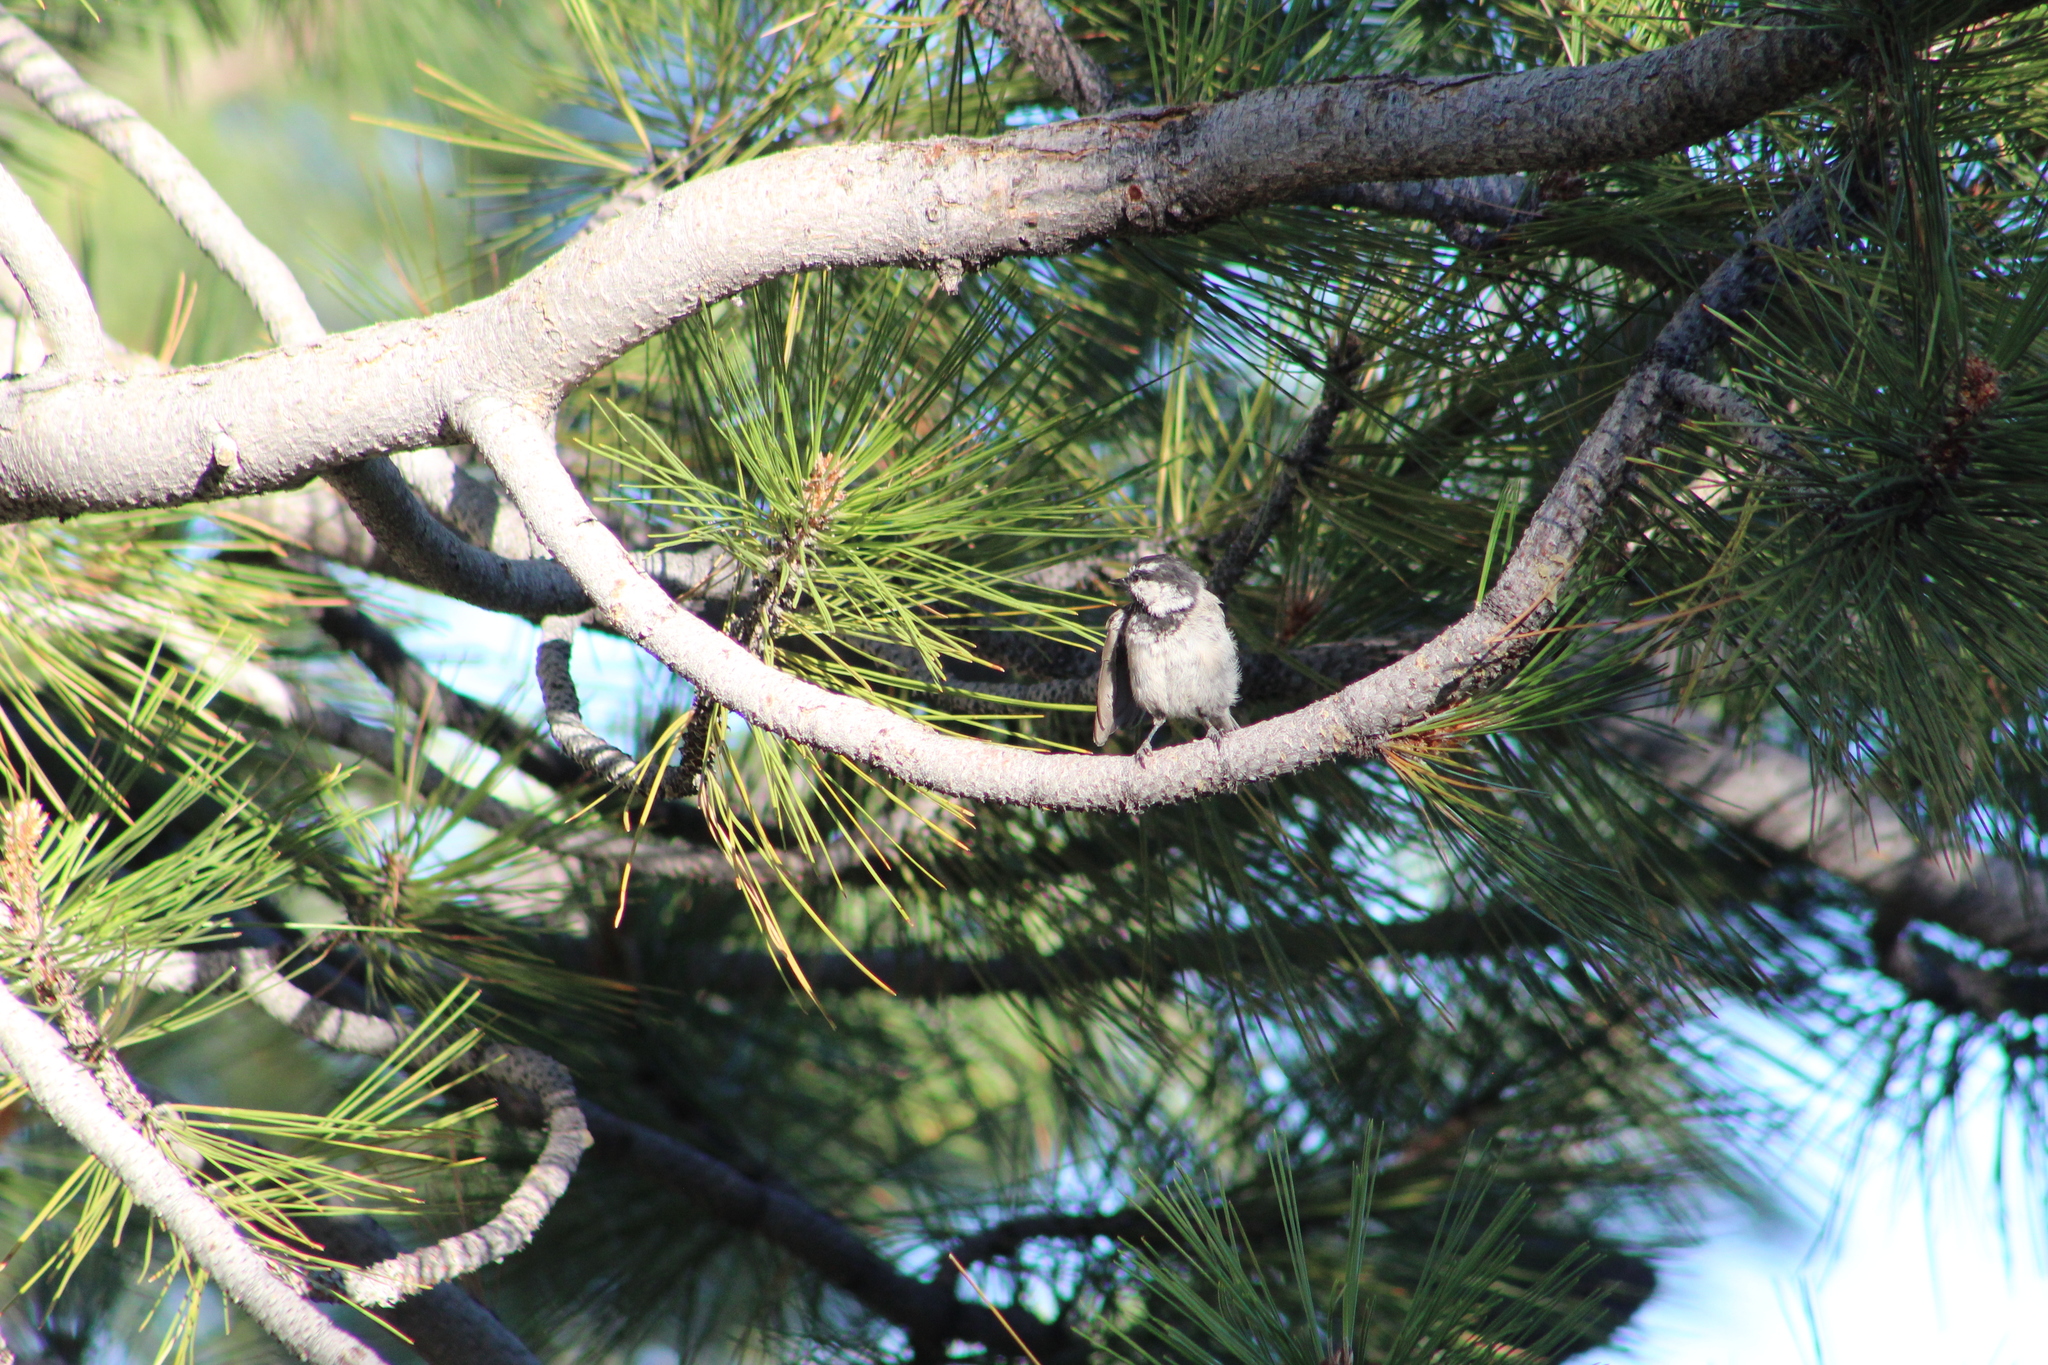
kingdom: Animalia
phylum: Chordata
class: Aves
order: Passeriformes
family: Paridae
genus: Poecile
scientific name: Poecile gambeli
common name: Mountain chickadee
